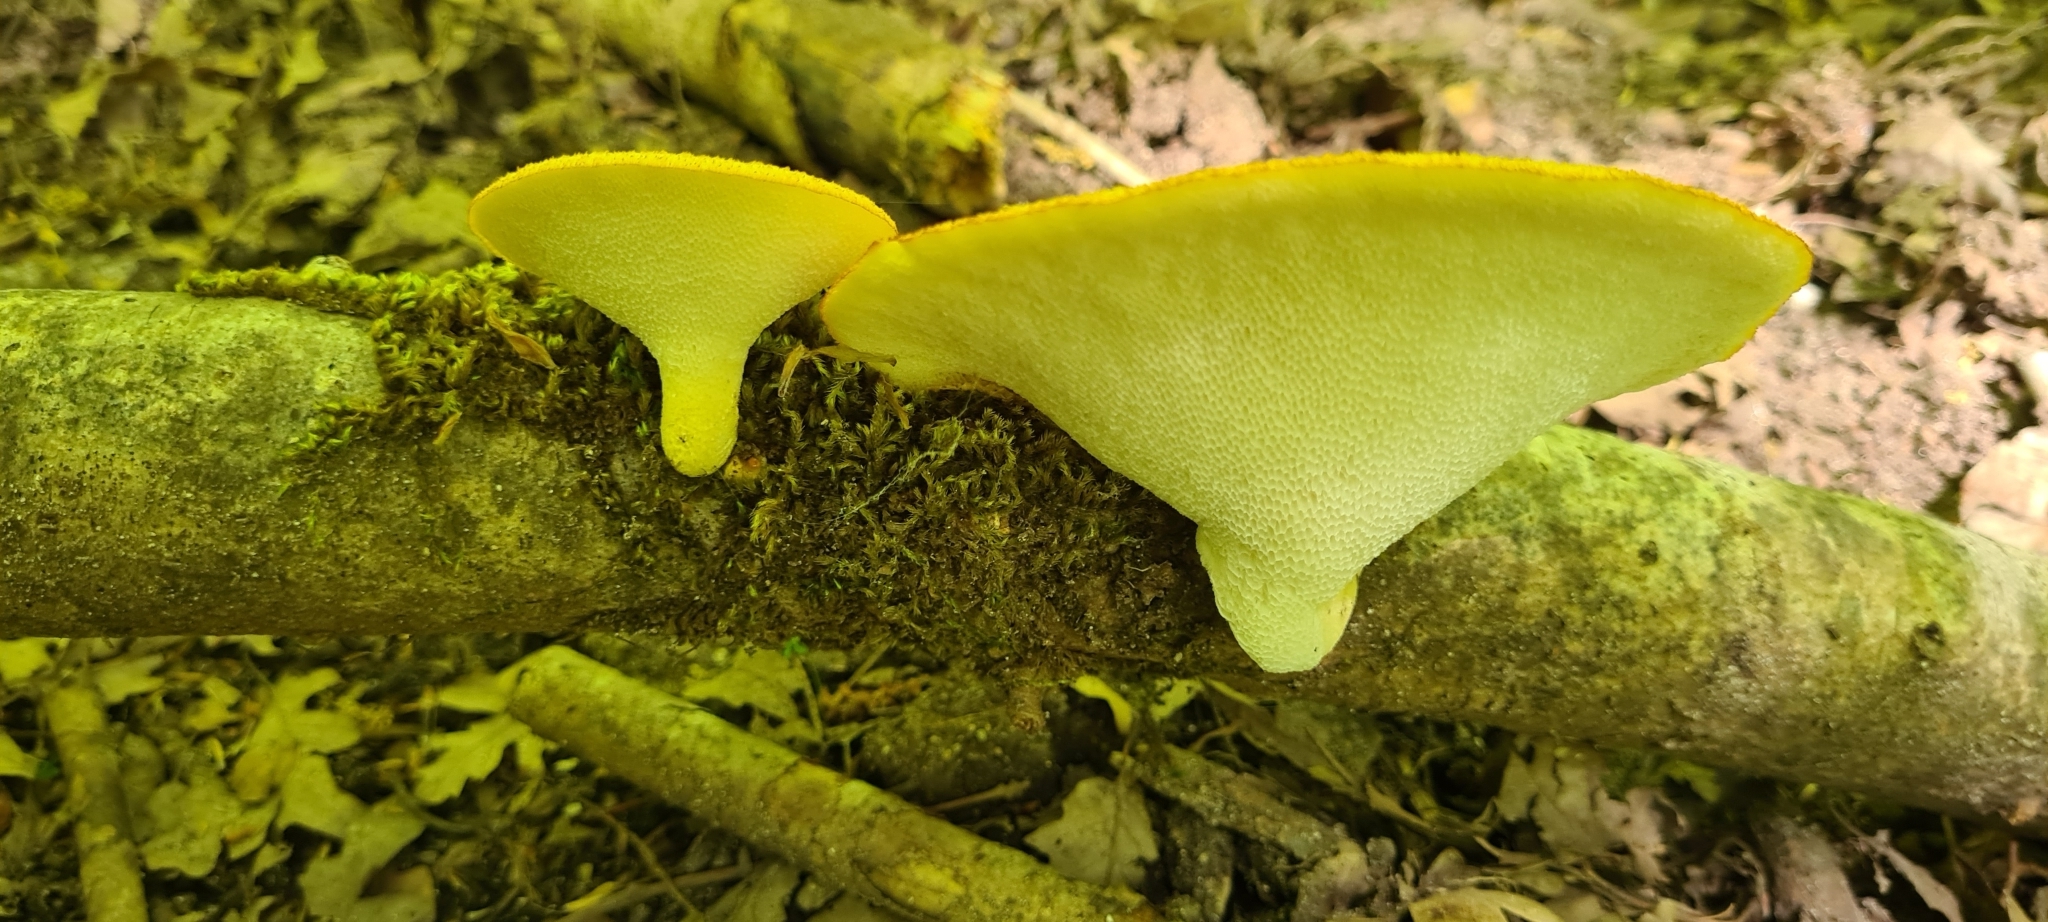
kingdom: Fungi
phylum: Basidiomycota
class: Agaricomycetes
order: Polyporales
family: Polyporaceae
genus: Polyporus
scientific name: Polyporus tuberaster
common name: Tuberous polypore
